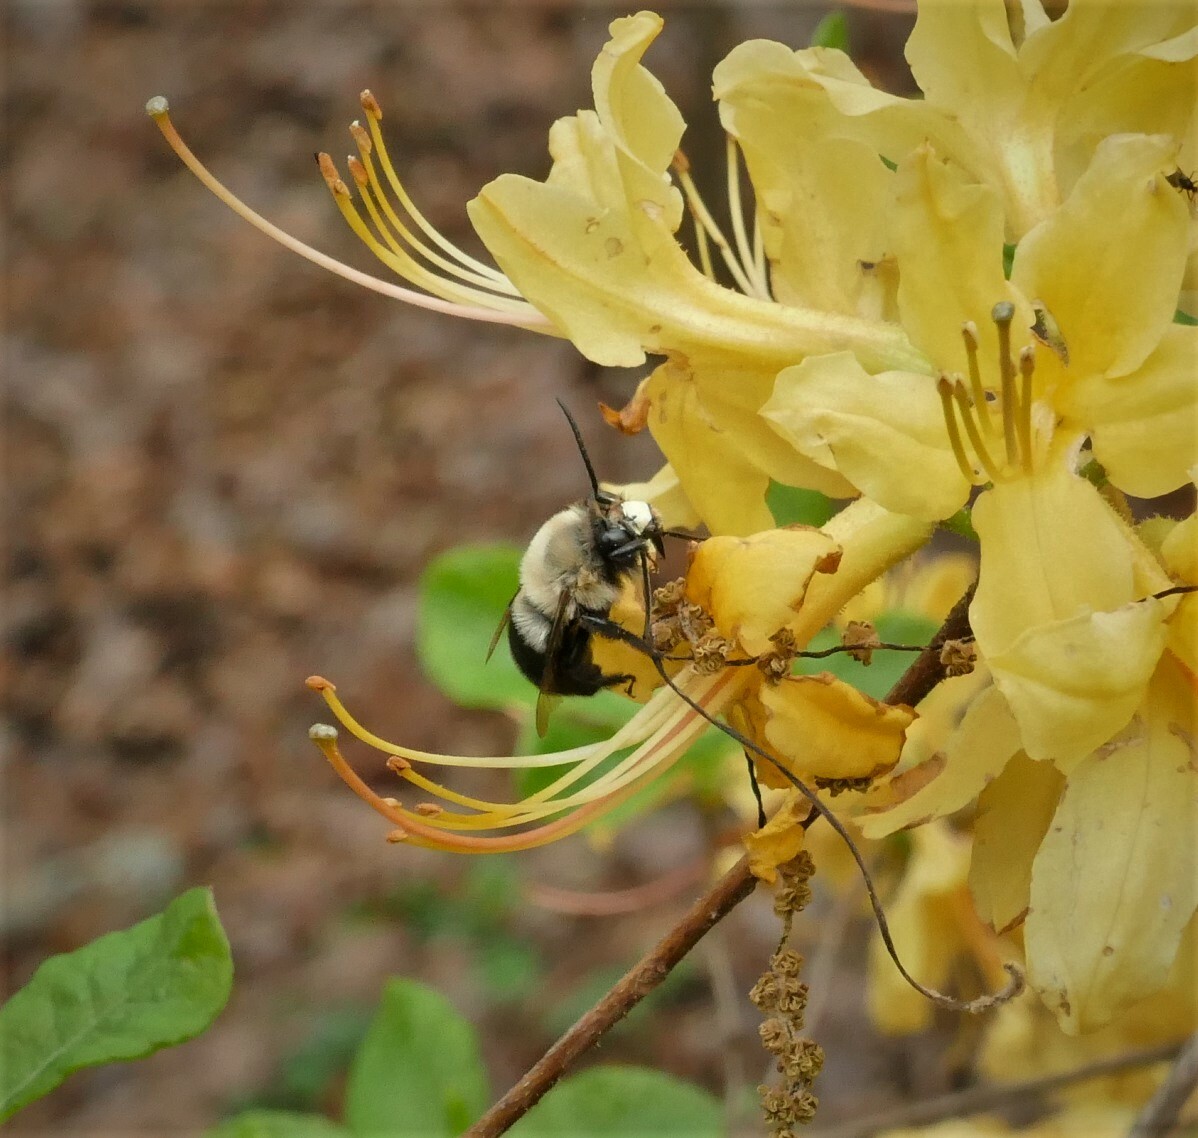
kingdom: Animalia
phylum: Arthropoda
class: Insecta
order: Hymenoptera
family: Apidae
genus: Habropoda
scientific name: Habropoda laboriosa
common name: Southeastern blueberry bee
